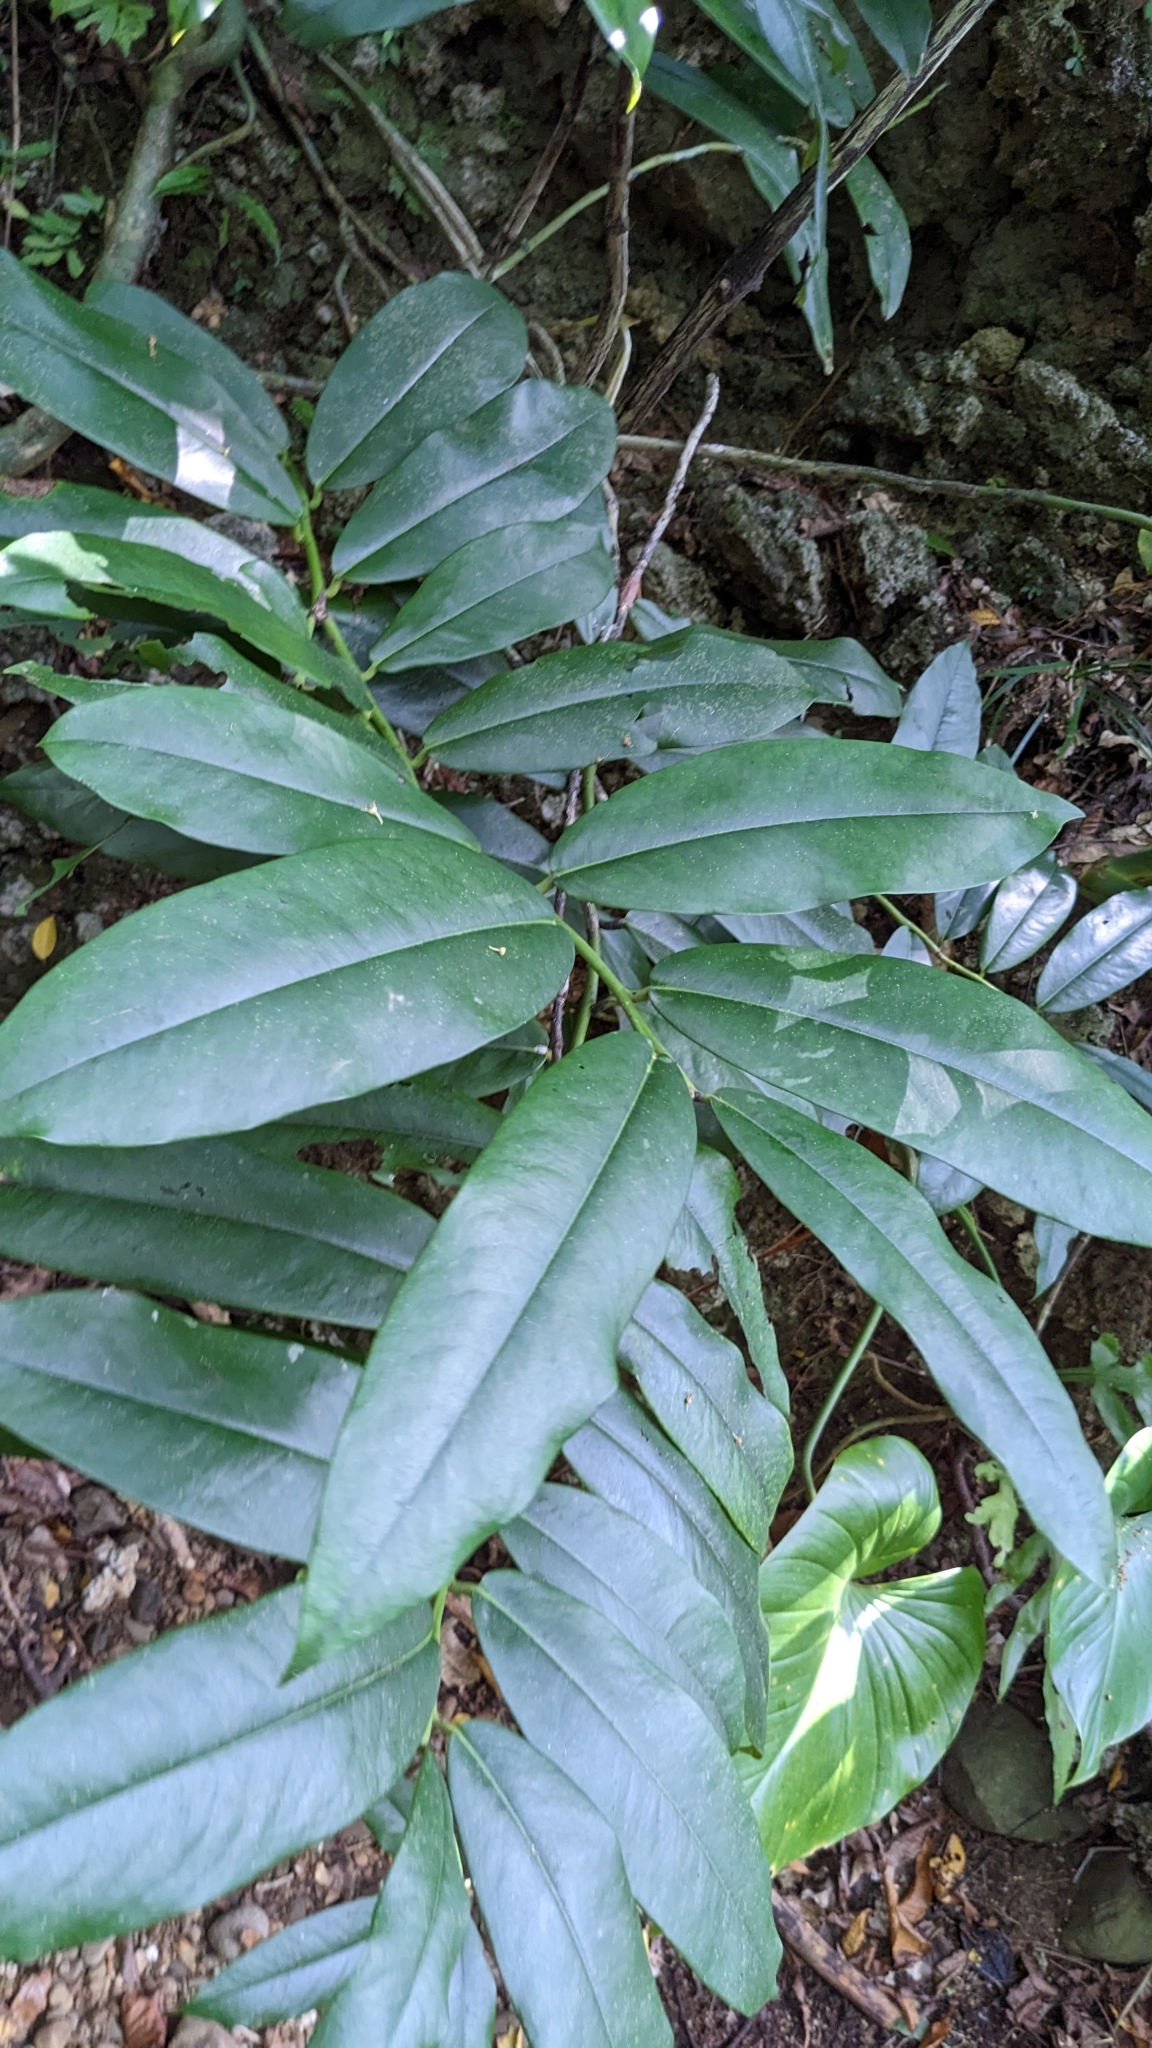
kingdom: Plantae
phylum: Tracheophyta
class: Magnoliopsida
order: Ericales
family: Ebenaceae
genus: Diospyros
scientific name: Diospyros blancoi
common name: Mabola-tree
